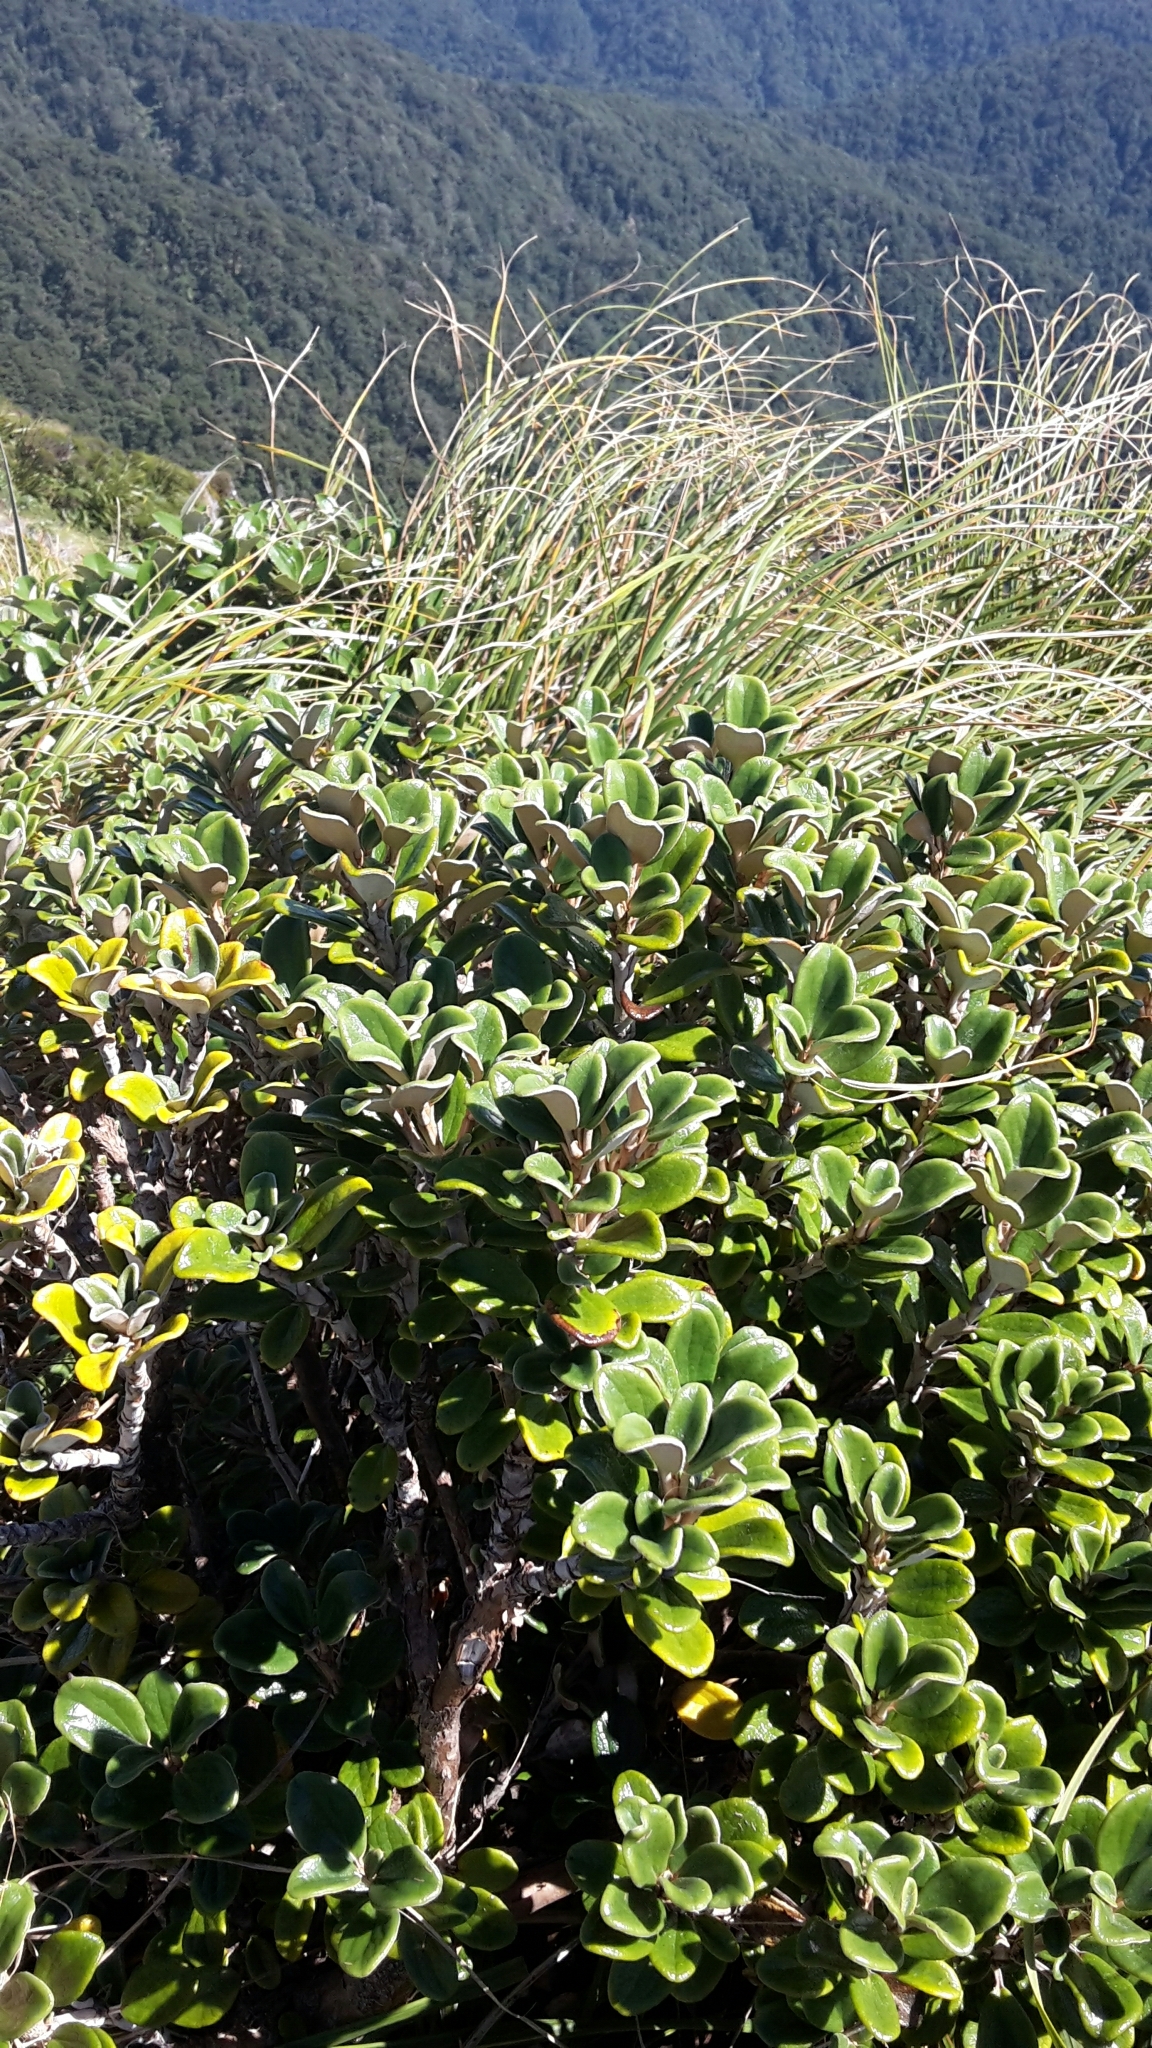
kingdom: Plantae
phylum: Tracheophyta
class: Magnoliopsida
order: Asterales
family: Asteraceae
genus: Brachyglottis
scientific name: Brachyglottis bidwillii
